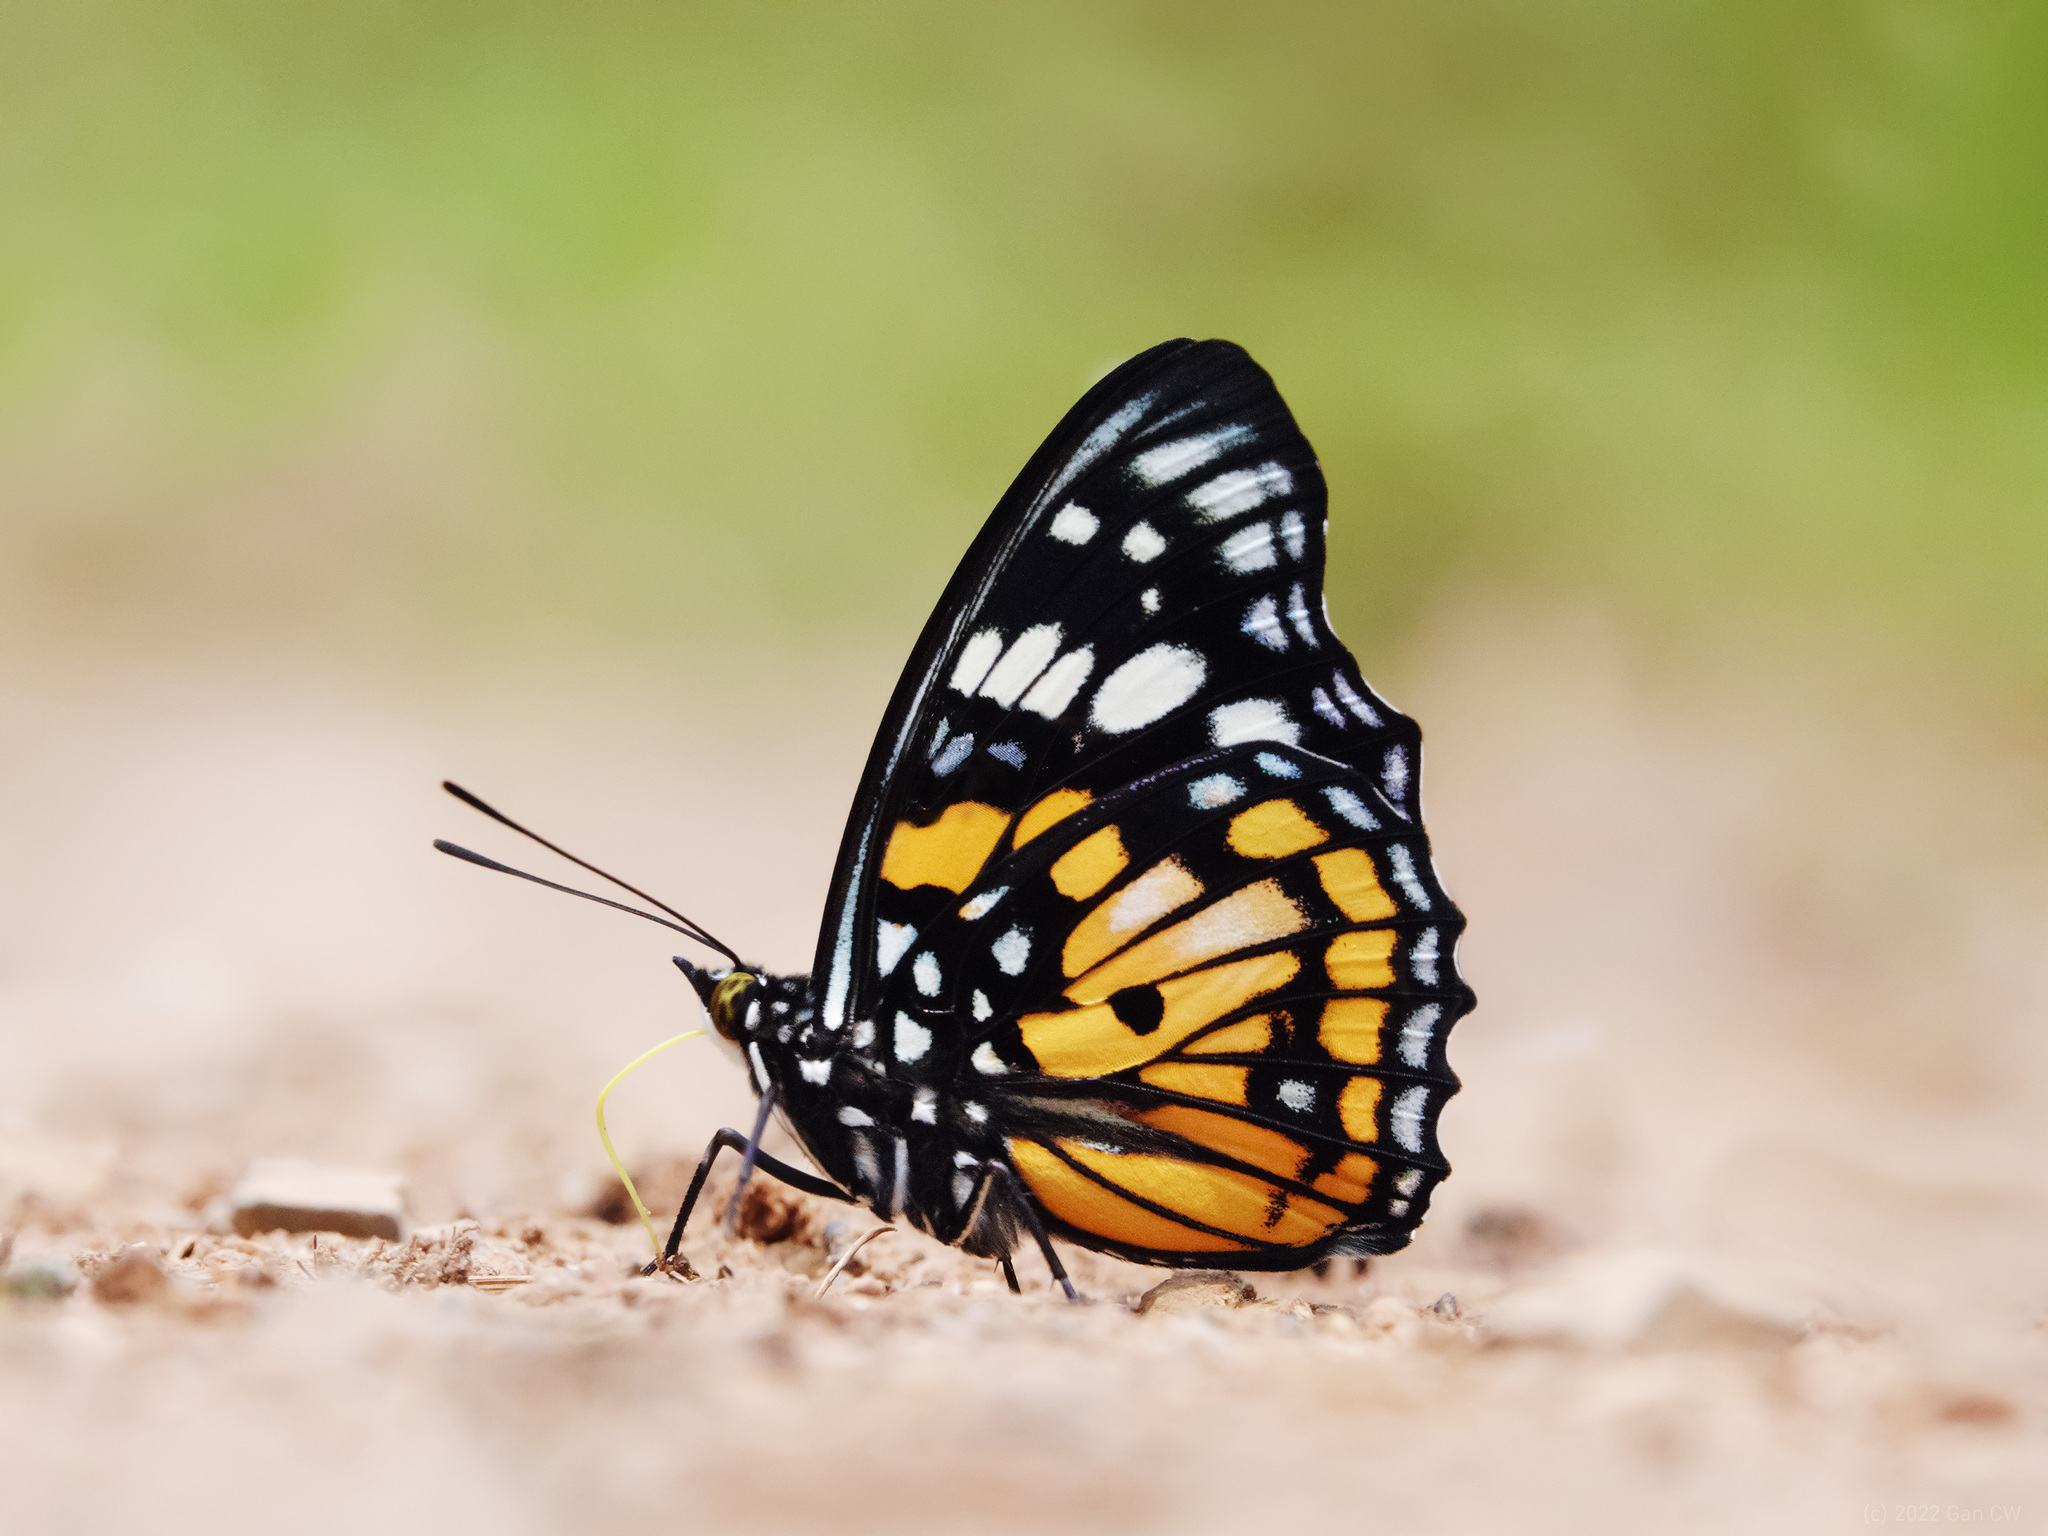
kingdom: Animalia
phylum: Arthropoda
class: Insecta
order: Lepidoptera
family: Nymphalidae
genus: Sephisa
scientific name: Sephisa chandra
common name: Eastern courtier
